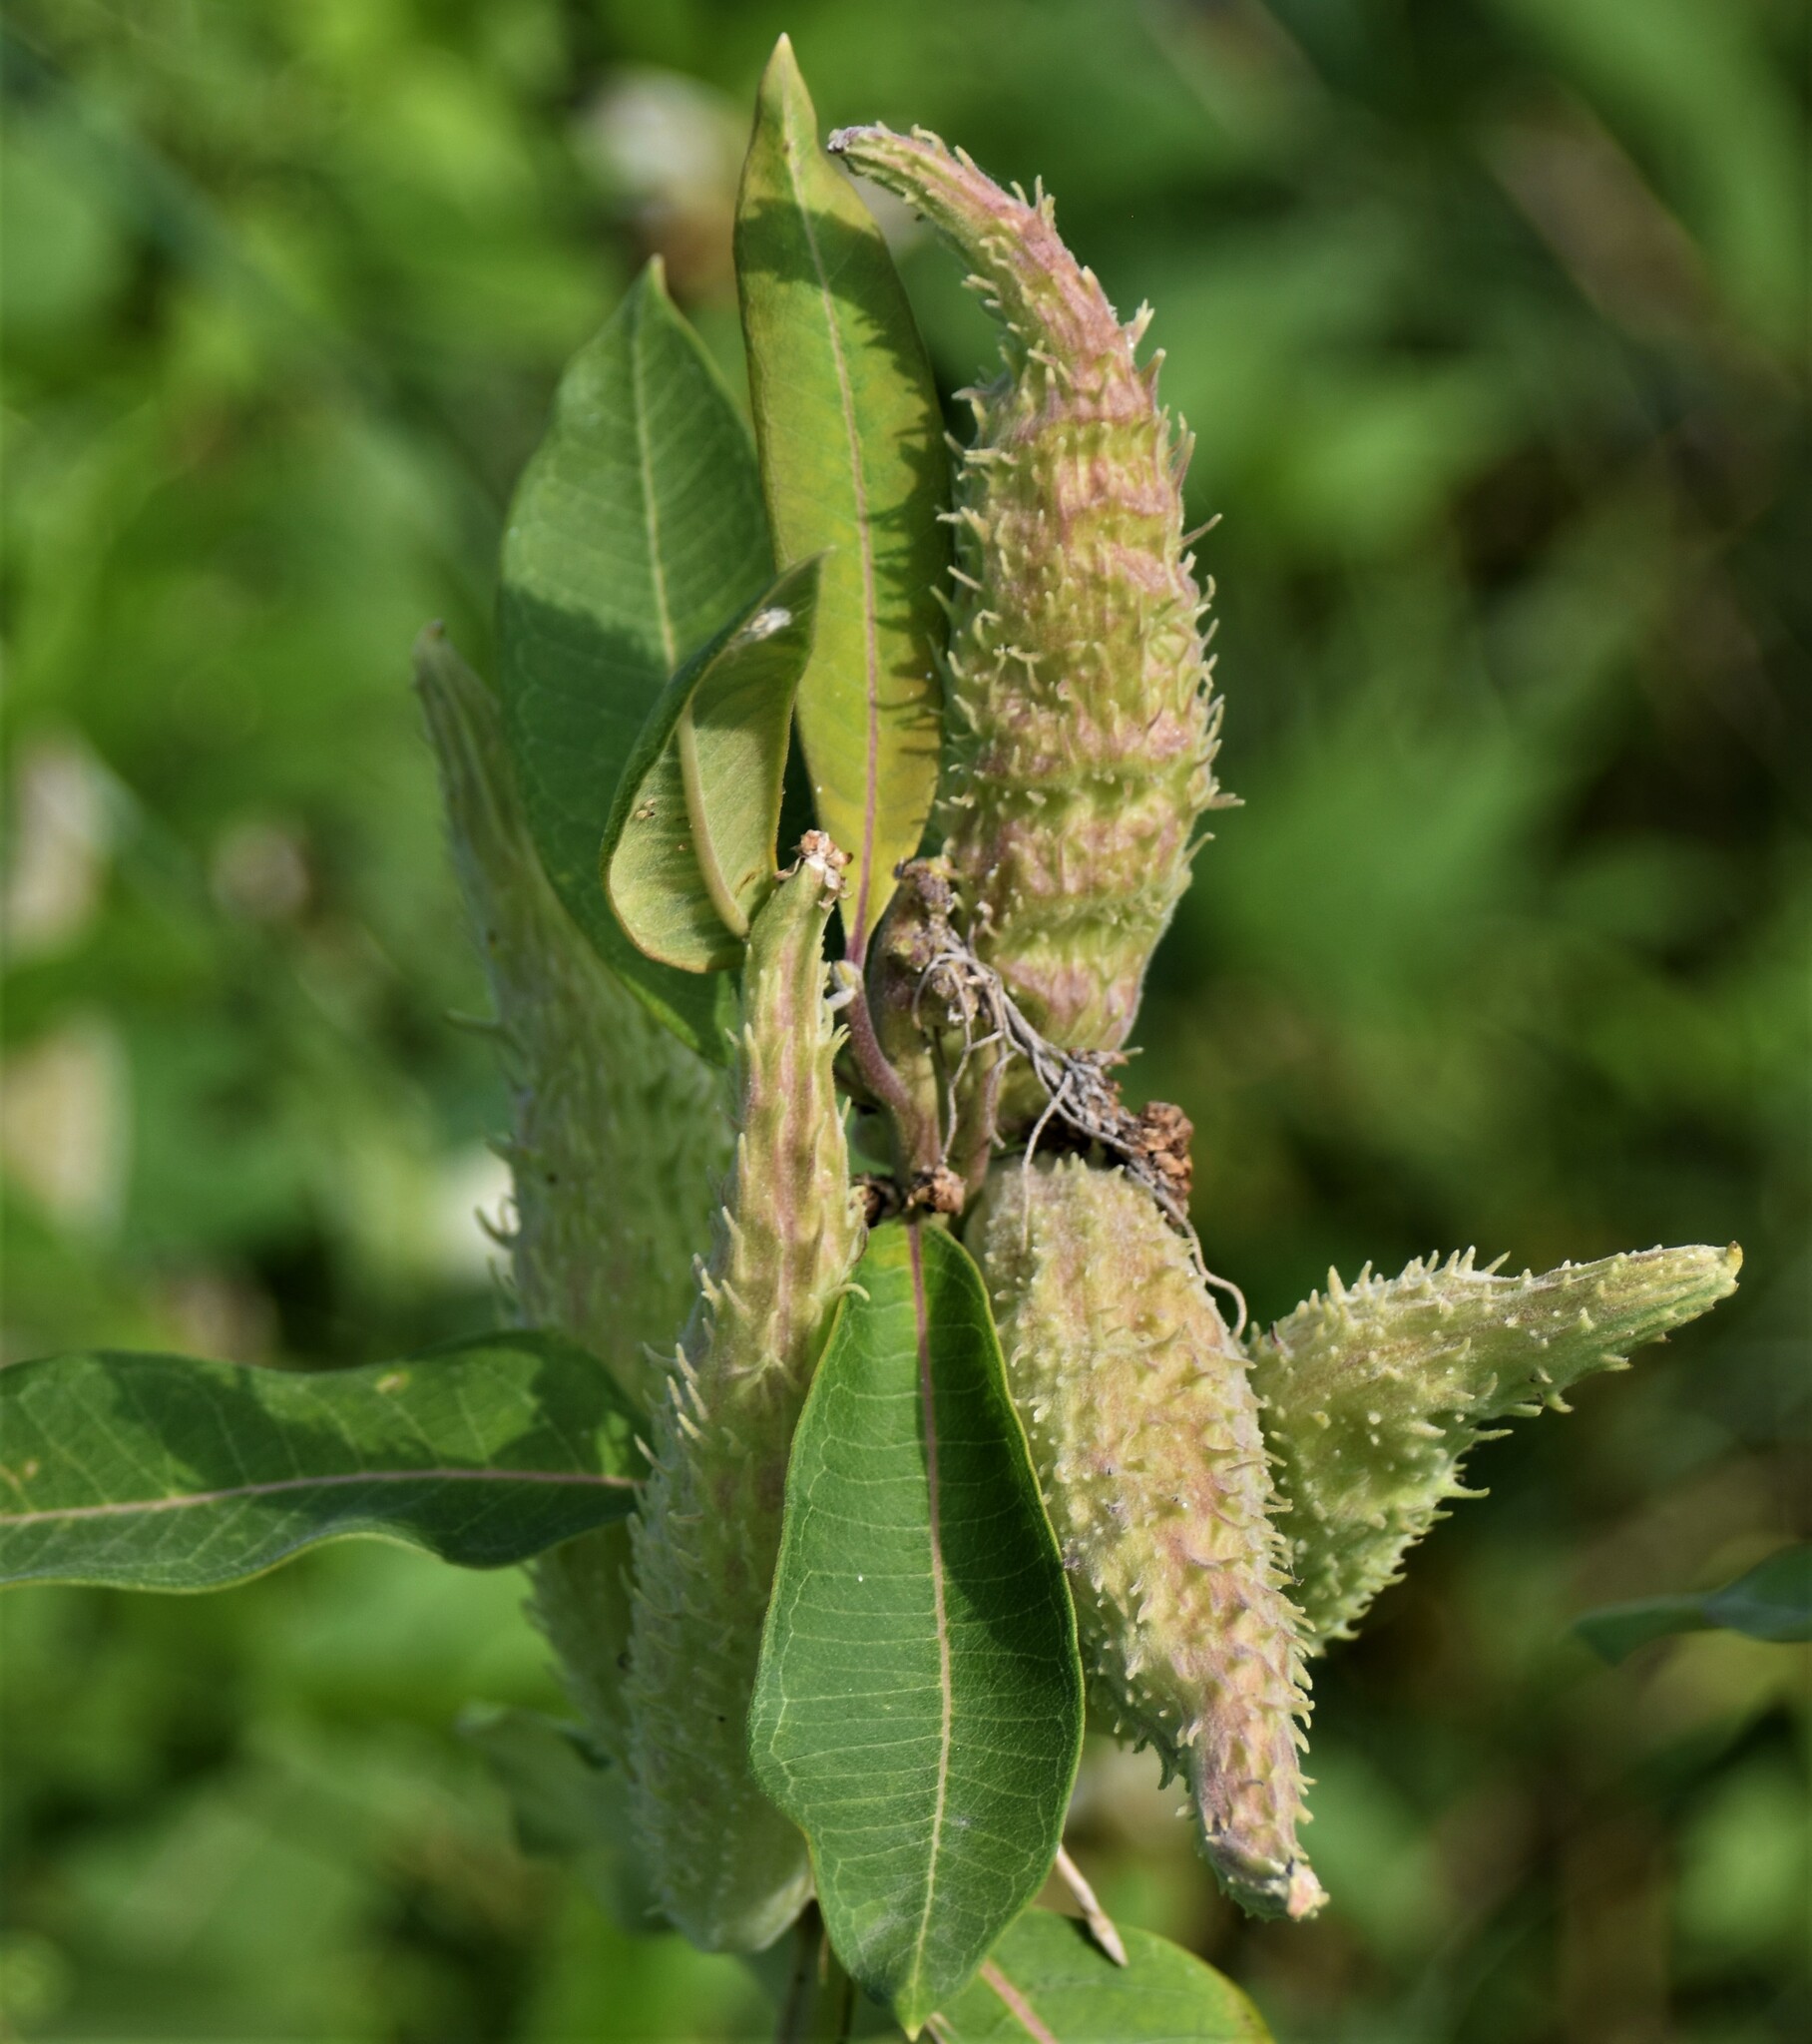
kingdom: Plantae
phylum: Tracheophyta
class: Magnoliopsida
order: Gentianales
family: Apocynaceae
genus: Asclepias
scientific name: Asclepias syriaca
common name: Common milkweed
